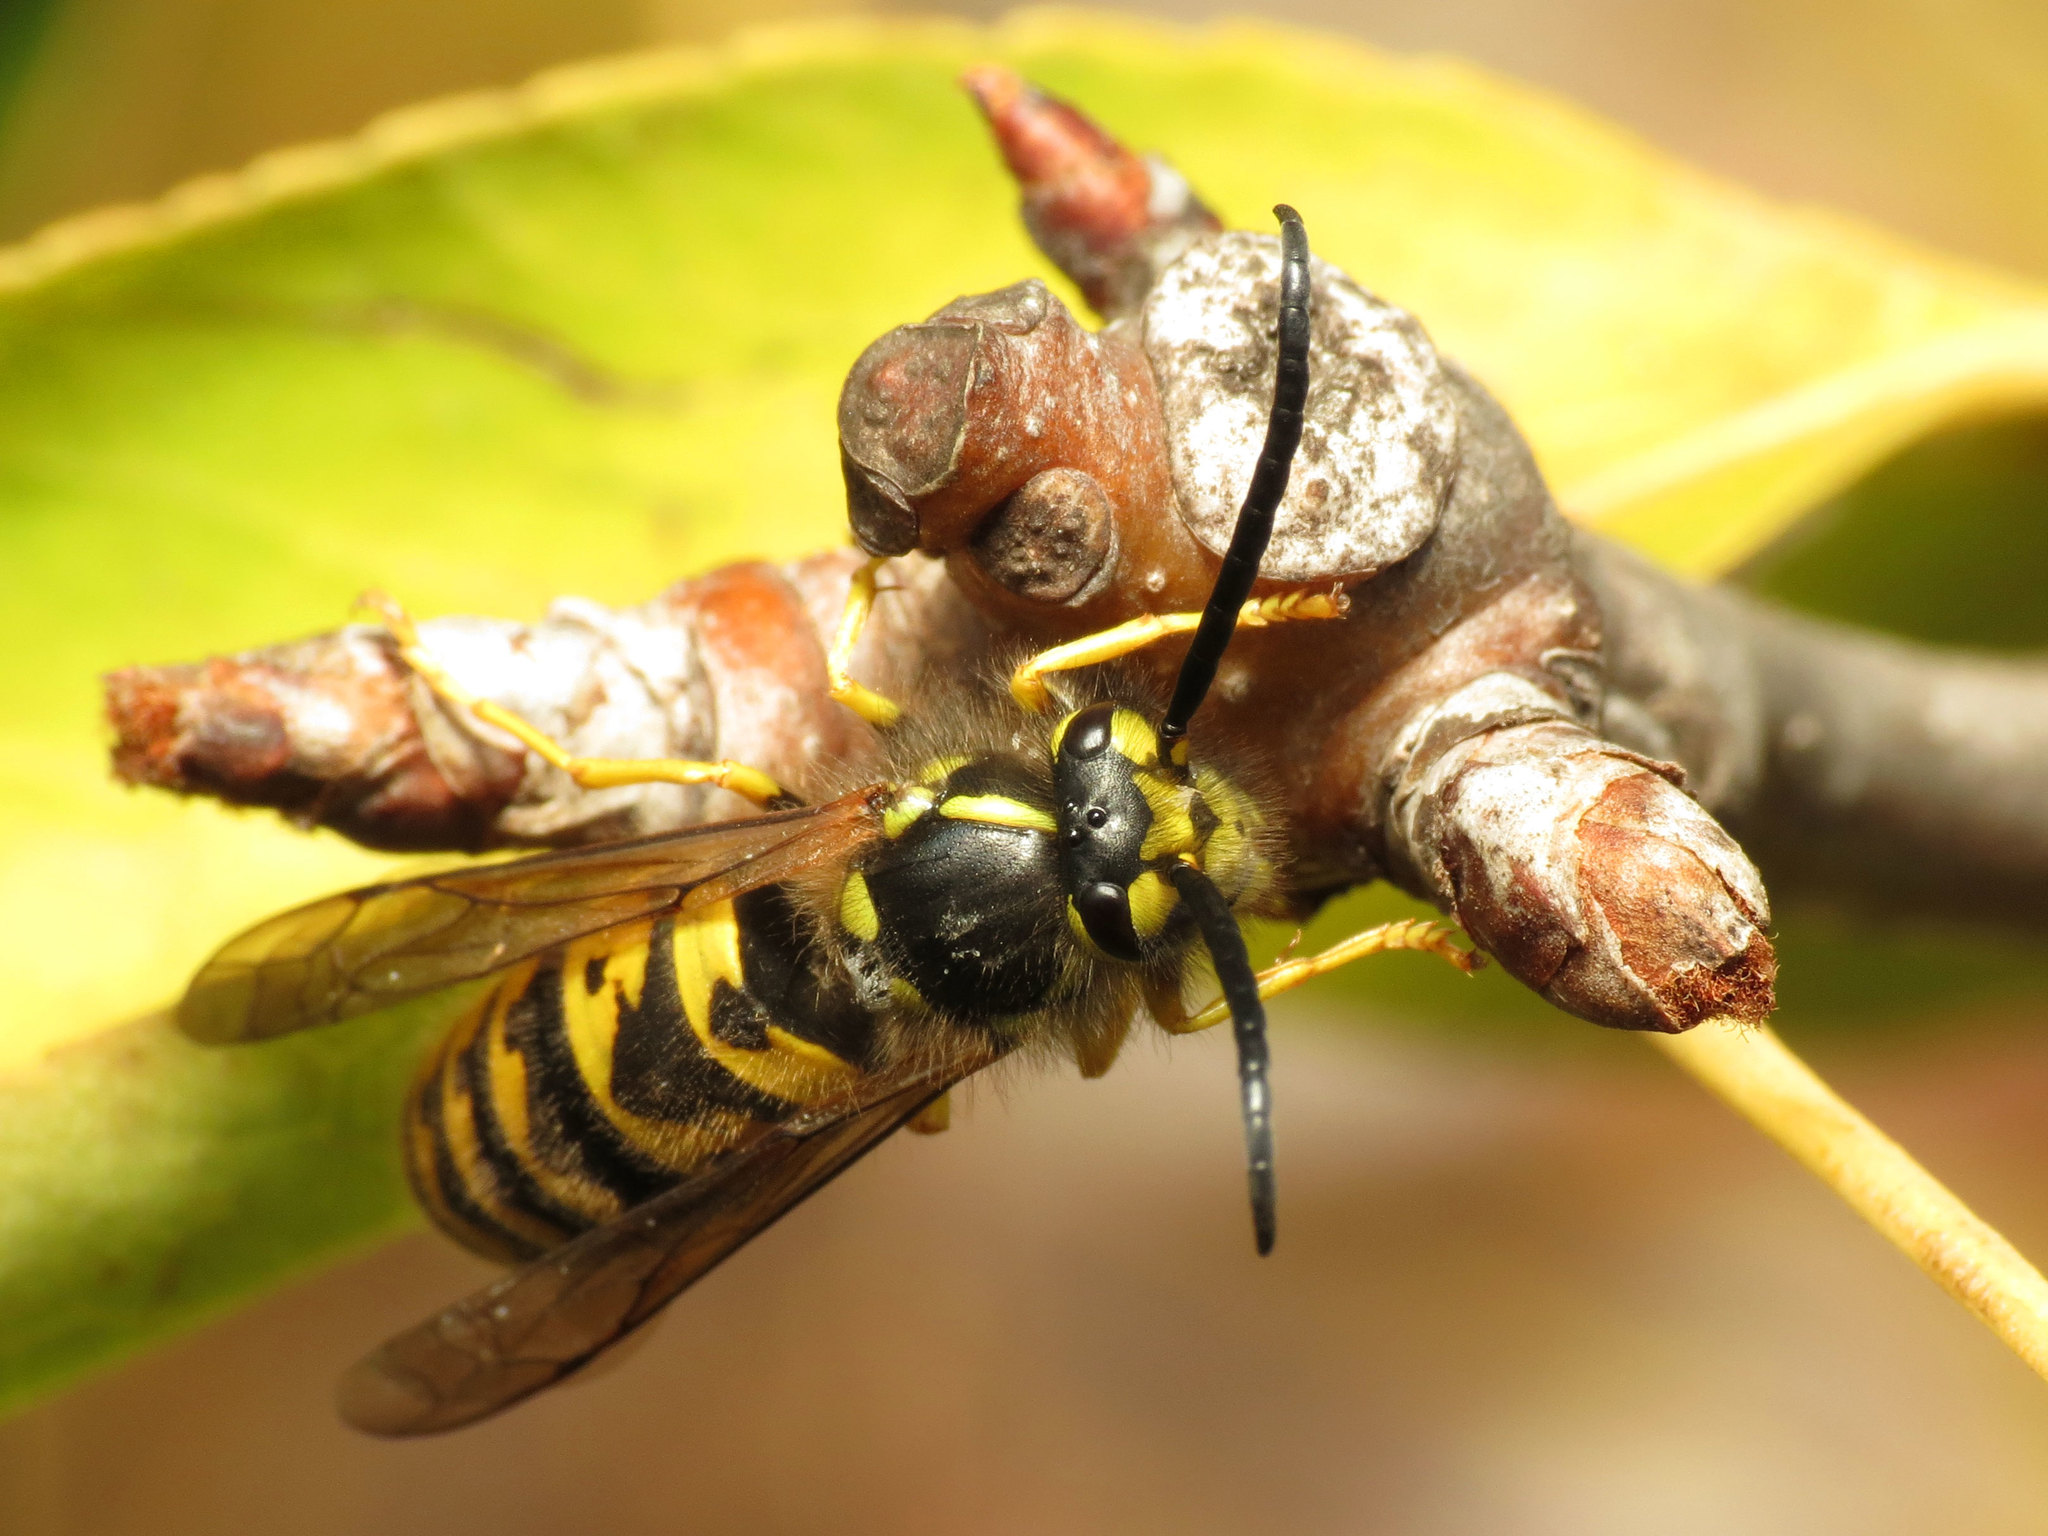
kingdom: Animalia
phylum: Arthropoda
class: Insecta
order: Hymenoptera
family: Vespidae
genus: Vespula
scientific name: Vespula germanica
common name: German wasp
